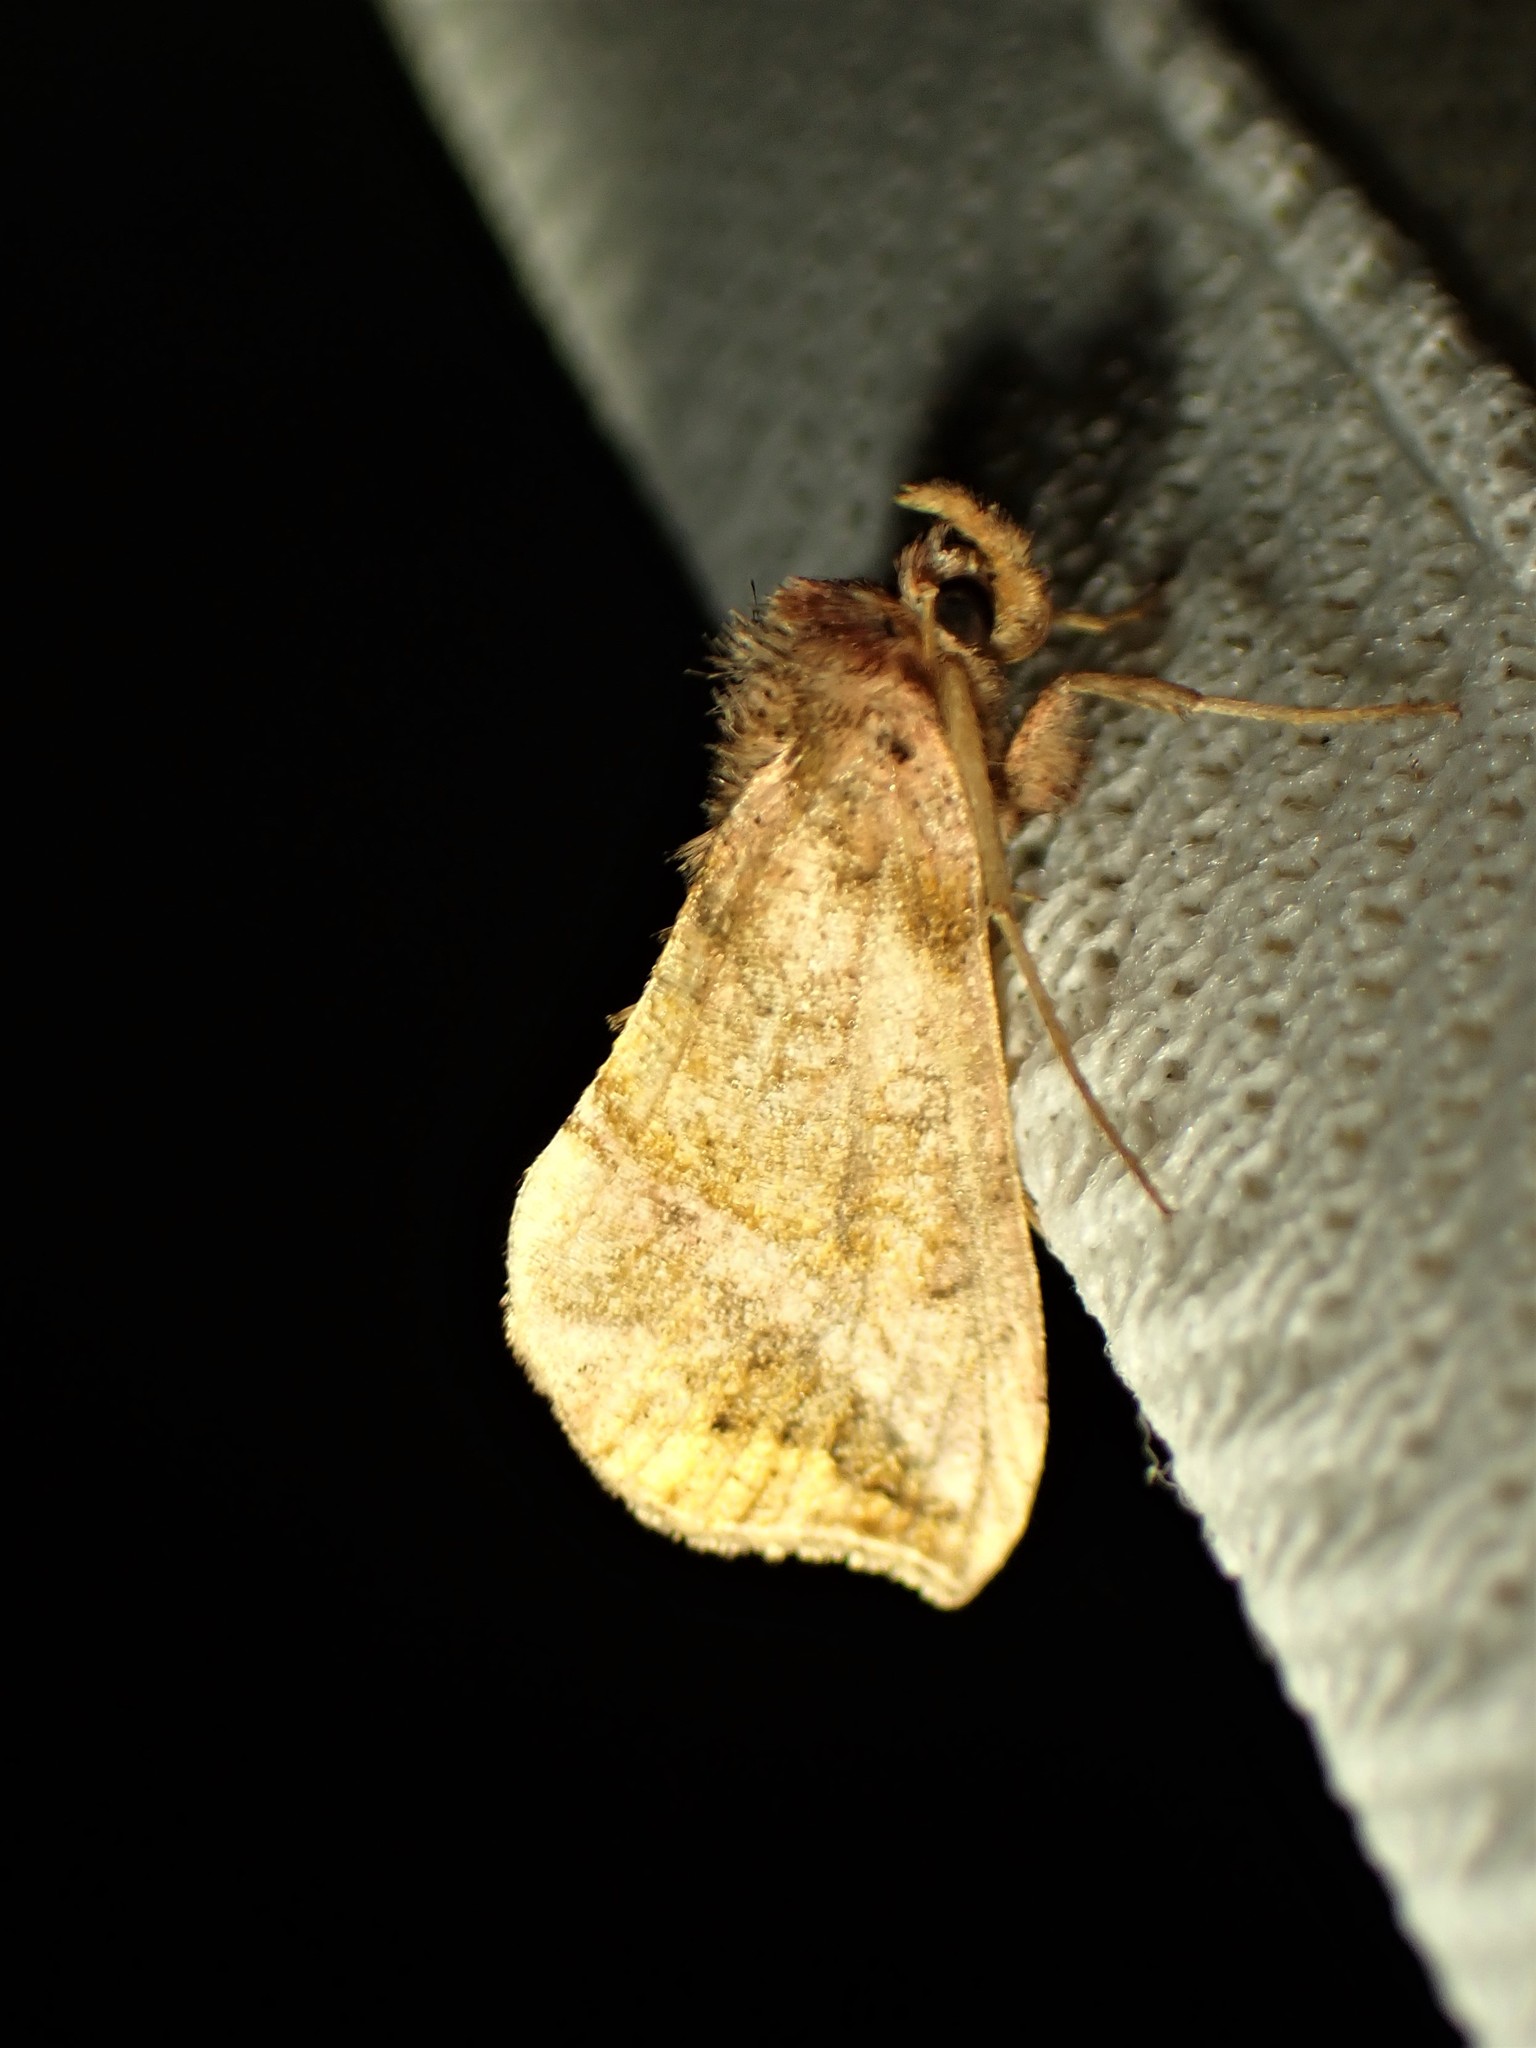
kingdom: Animalia
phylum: Arthropoda
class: Insecta
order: Lepidoptera
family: Noctuidae
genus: Pseudeva
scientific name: Pseudeva purpurigera
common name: Straight-lined looper moth
